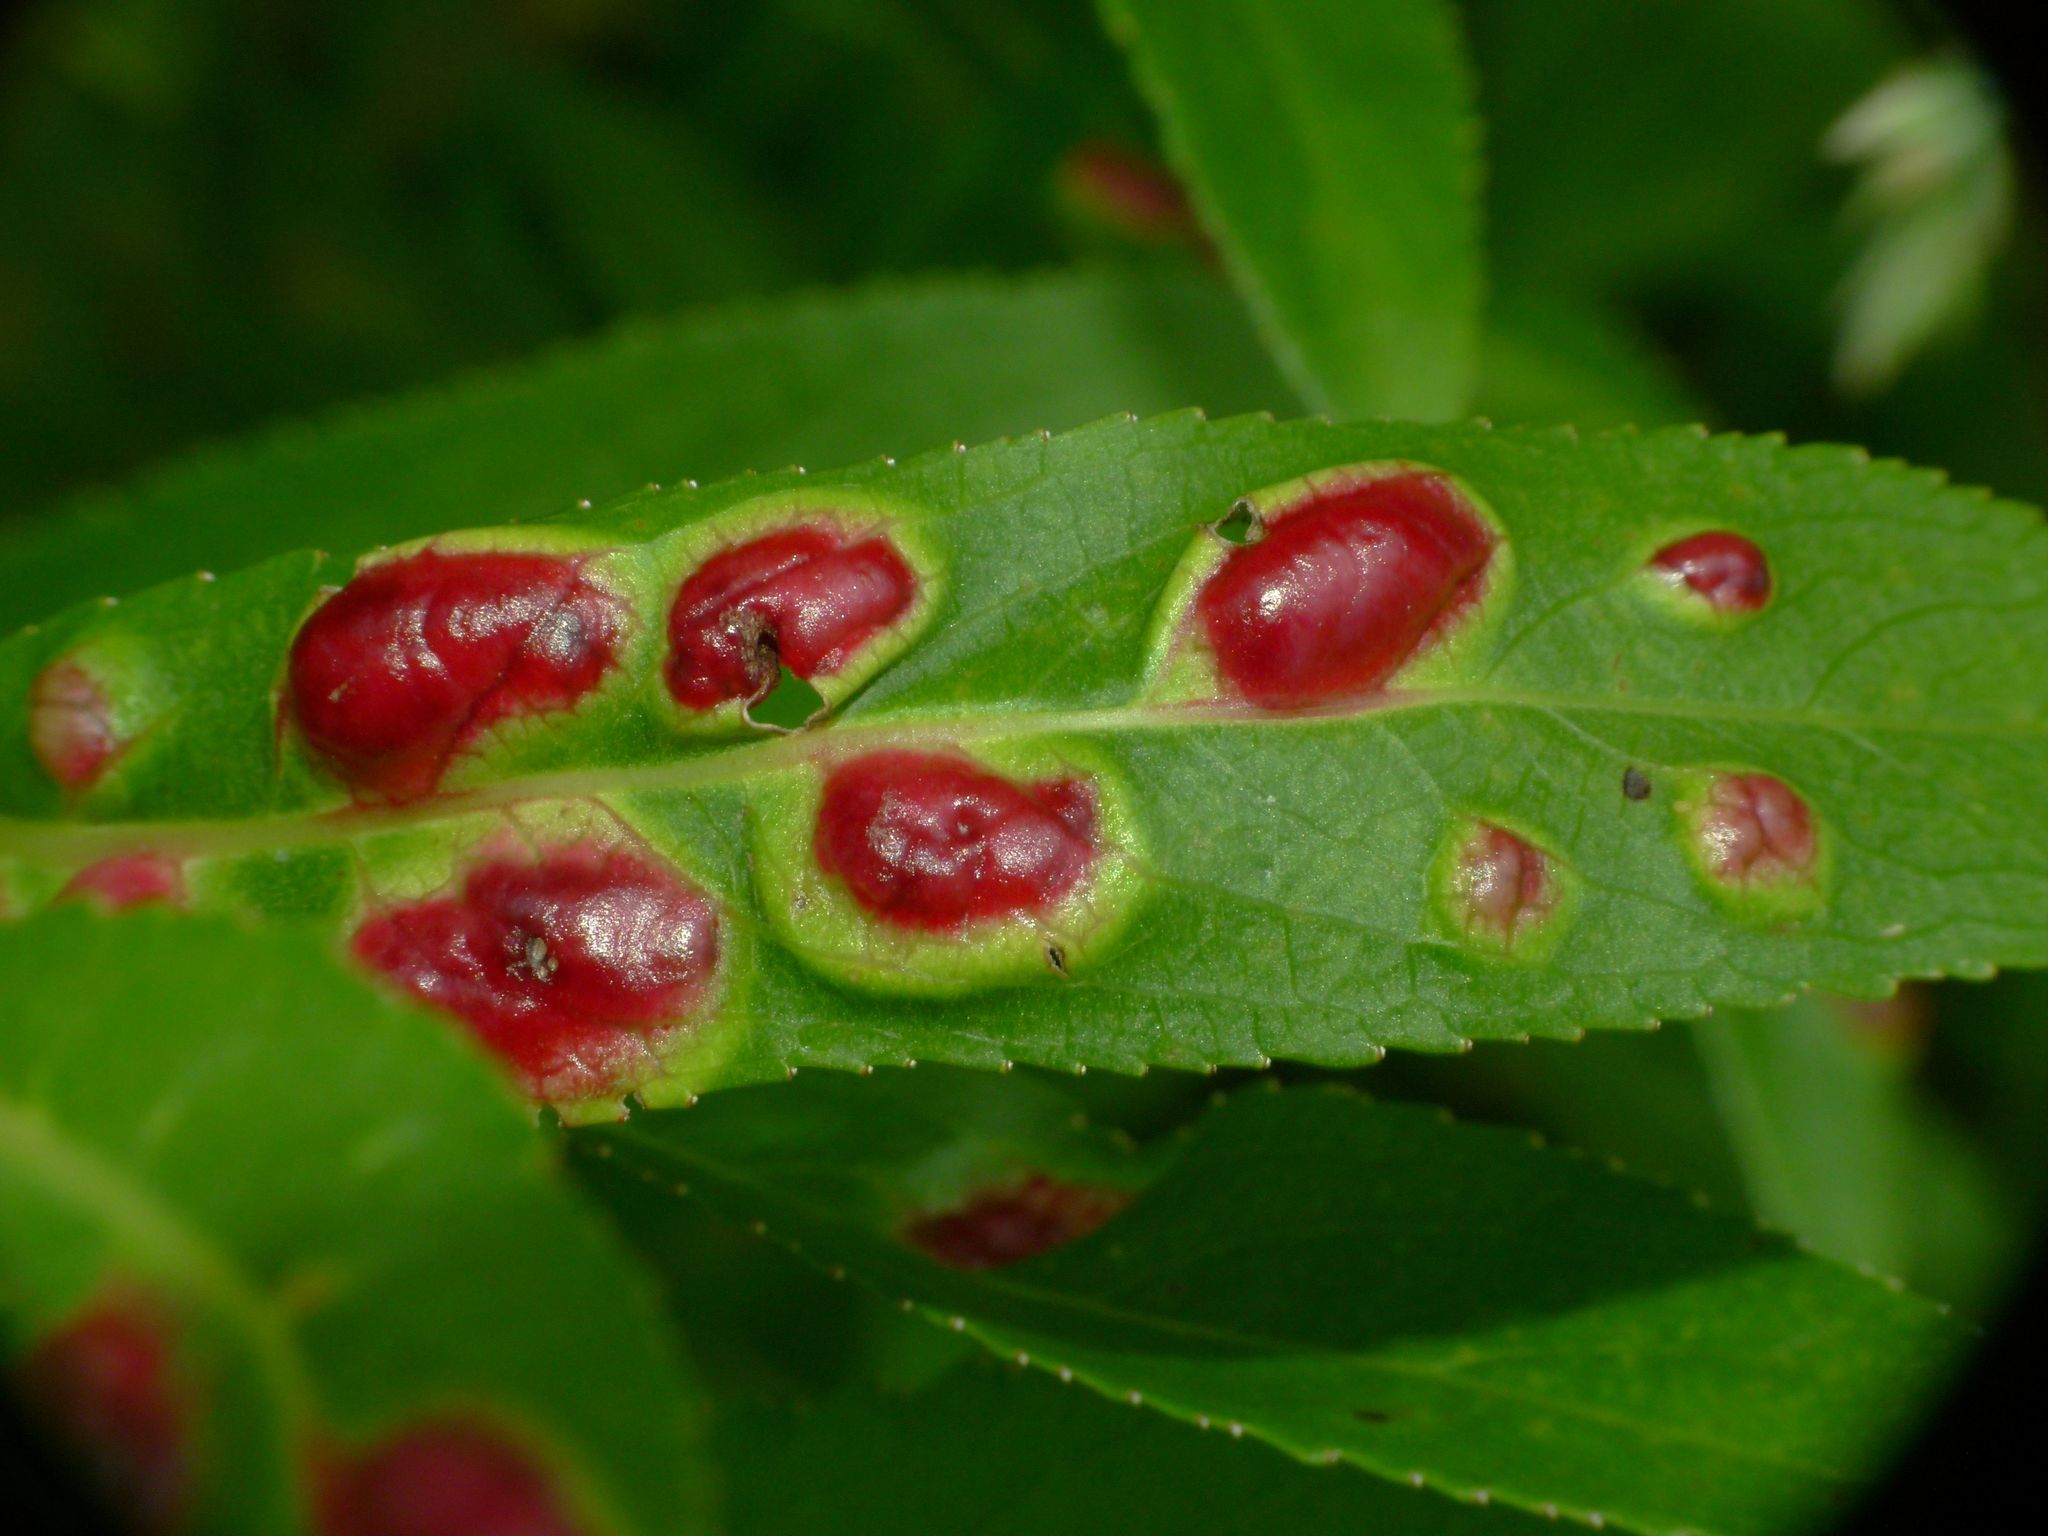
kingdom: Animalia
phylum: Arthropoda
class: Insecta
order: Hymenoptera
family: Tenthredinidae
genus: Pontania
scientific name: Pontania proxima
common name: Common sawfly
